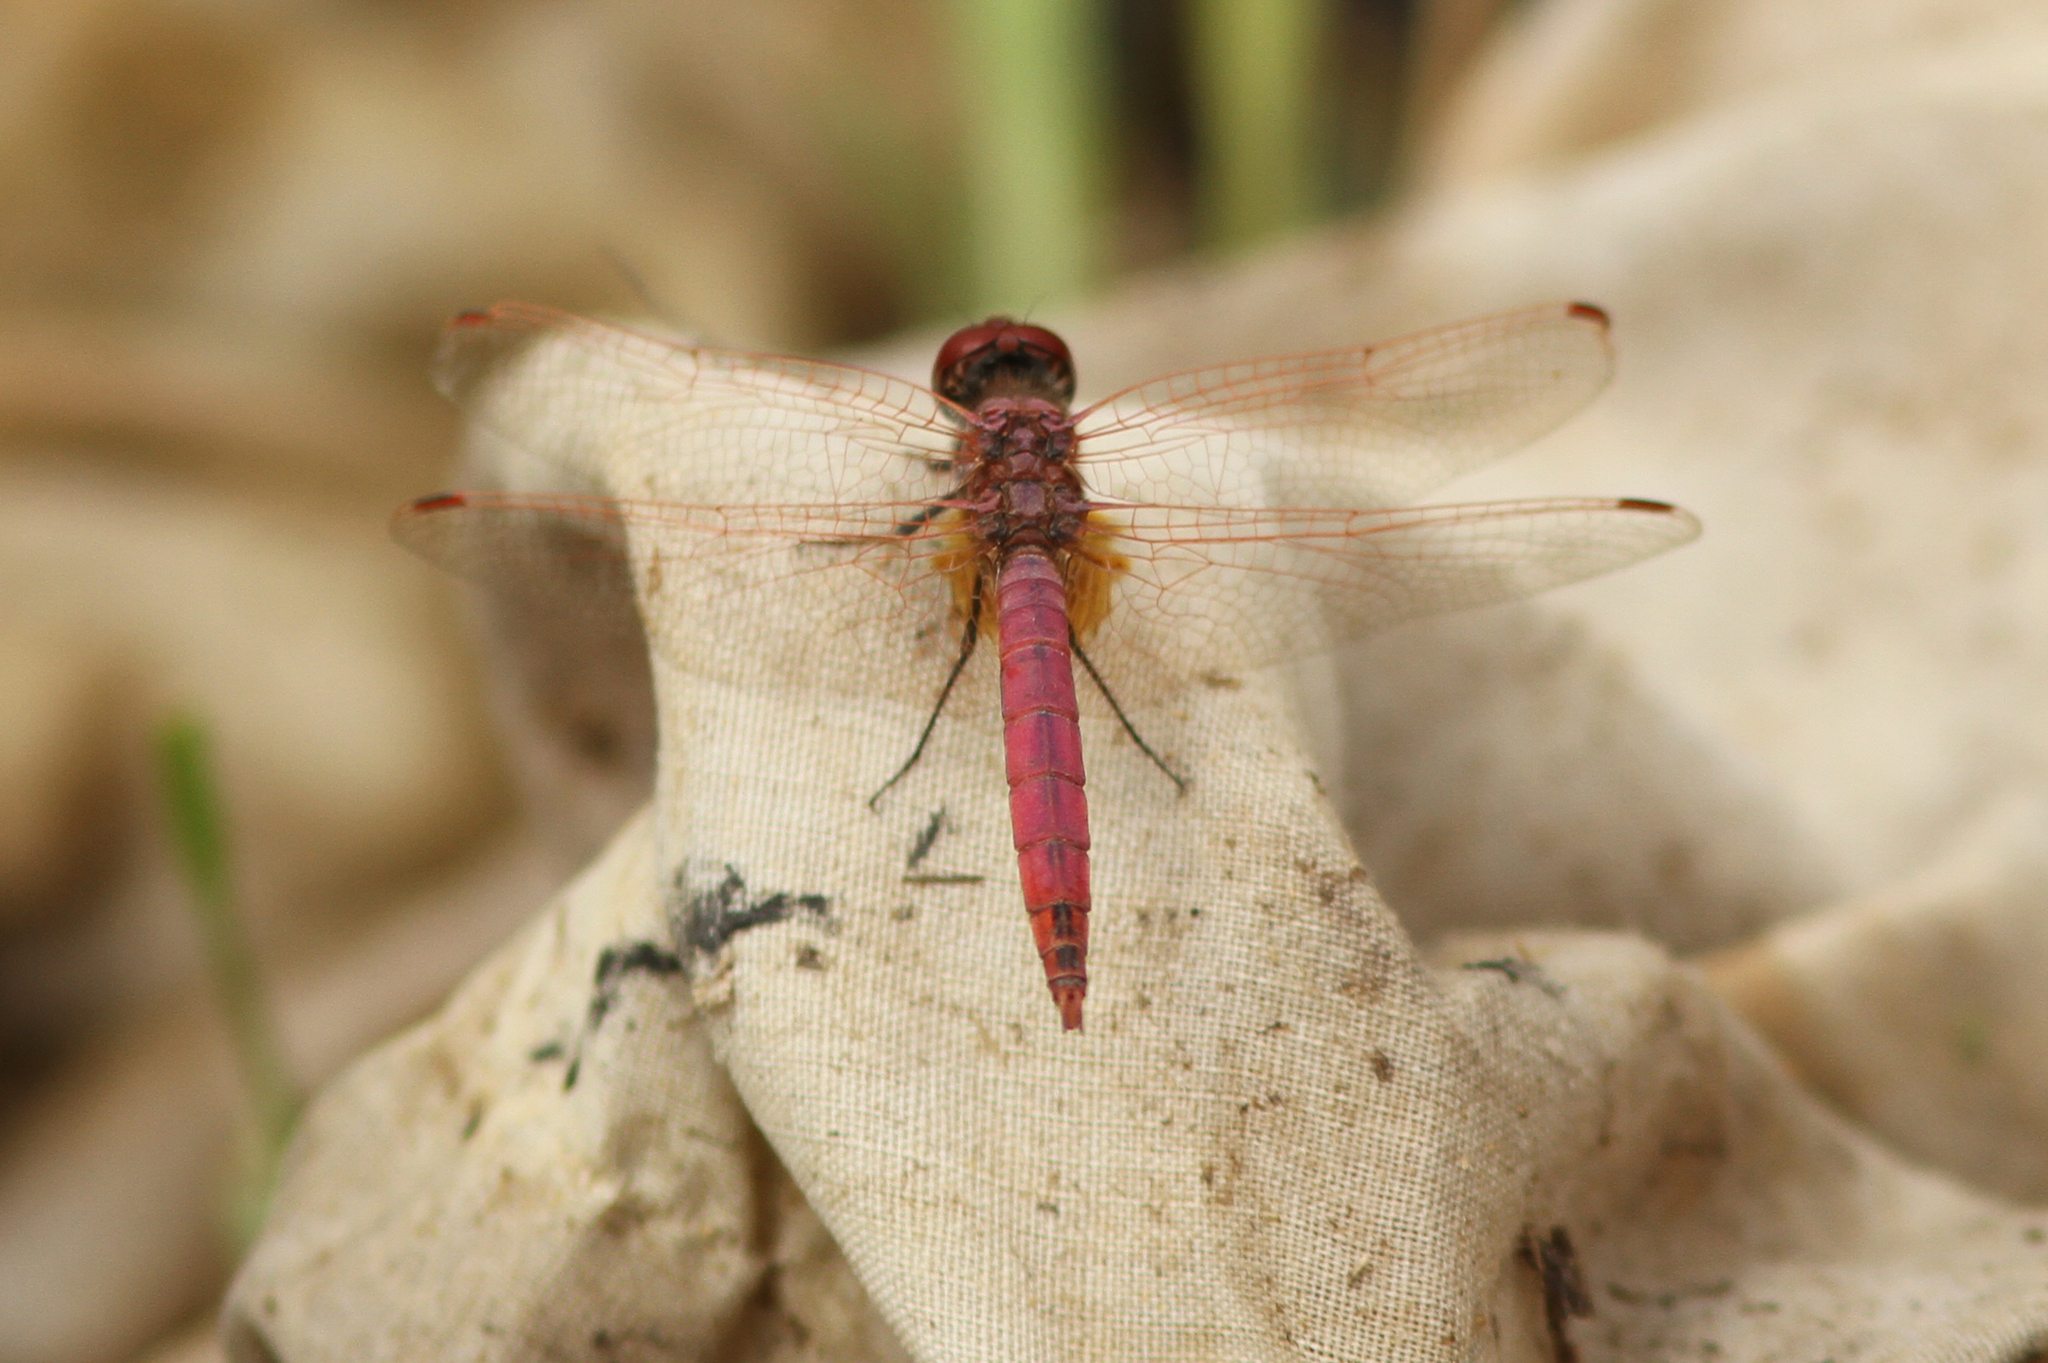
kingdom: Animalia
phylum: Arthropoda
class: Insecta
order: Odonata
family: Libellulidae
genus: Trithemis
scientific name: Trithemis annulata
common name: Violet dropwing
